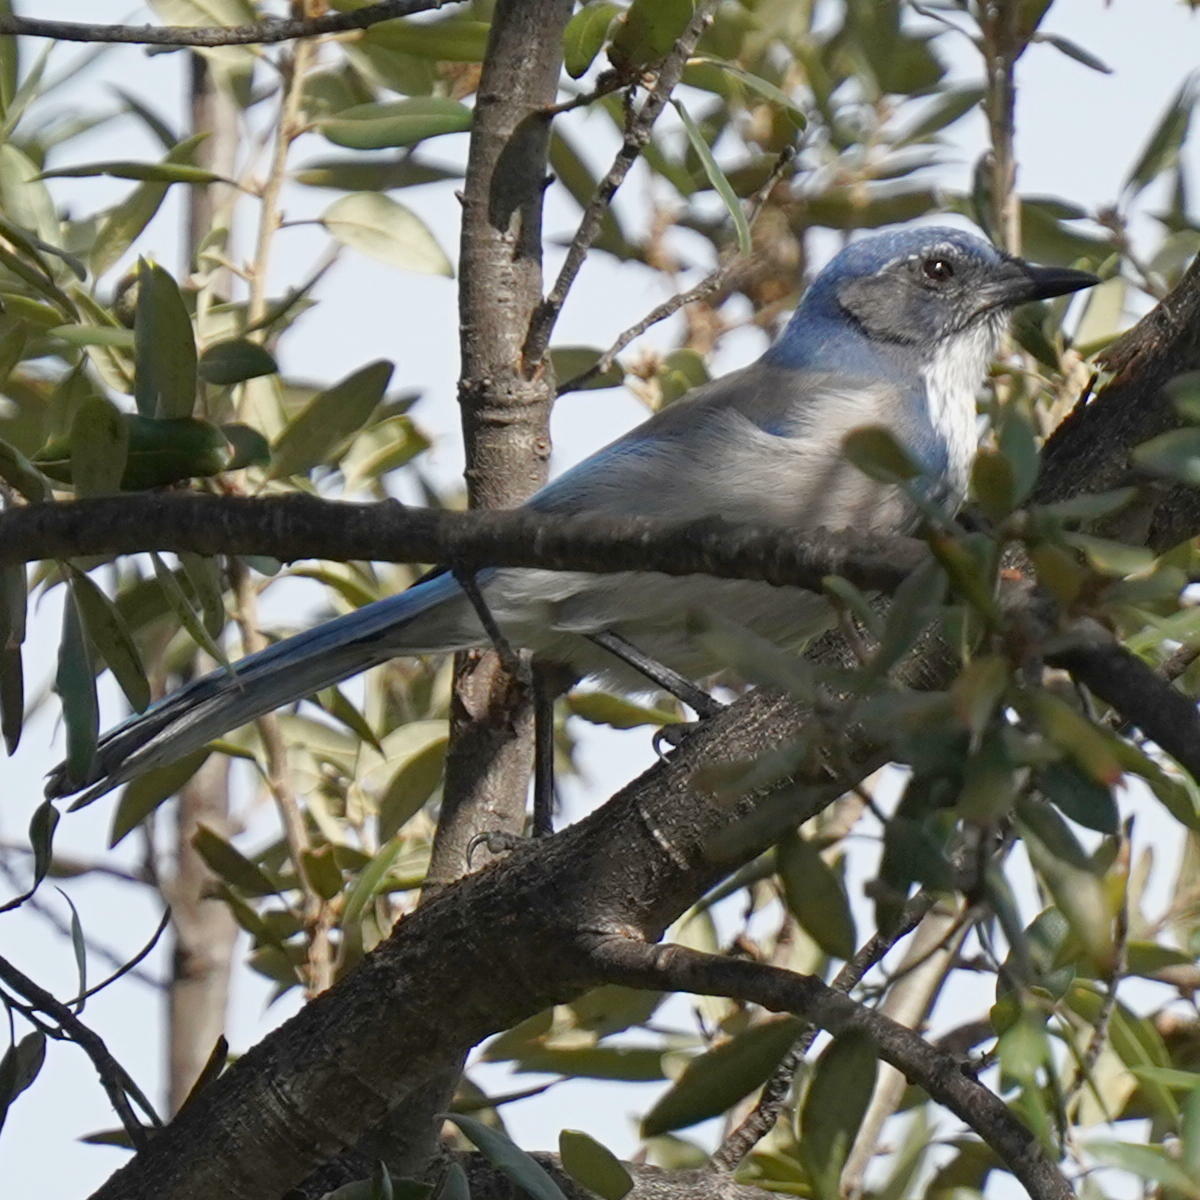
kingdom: Animalia
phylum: Chordata
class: Aves
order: Passeriformes
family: Corvidae
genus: Aphelocoma
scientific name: Aphelocoma californica
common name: California scrub-jay
